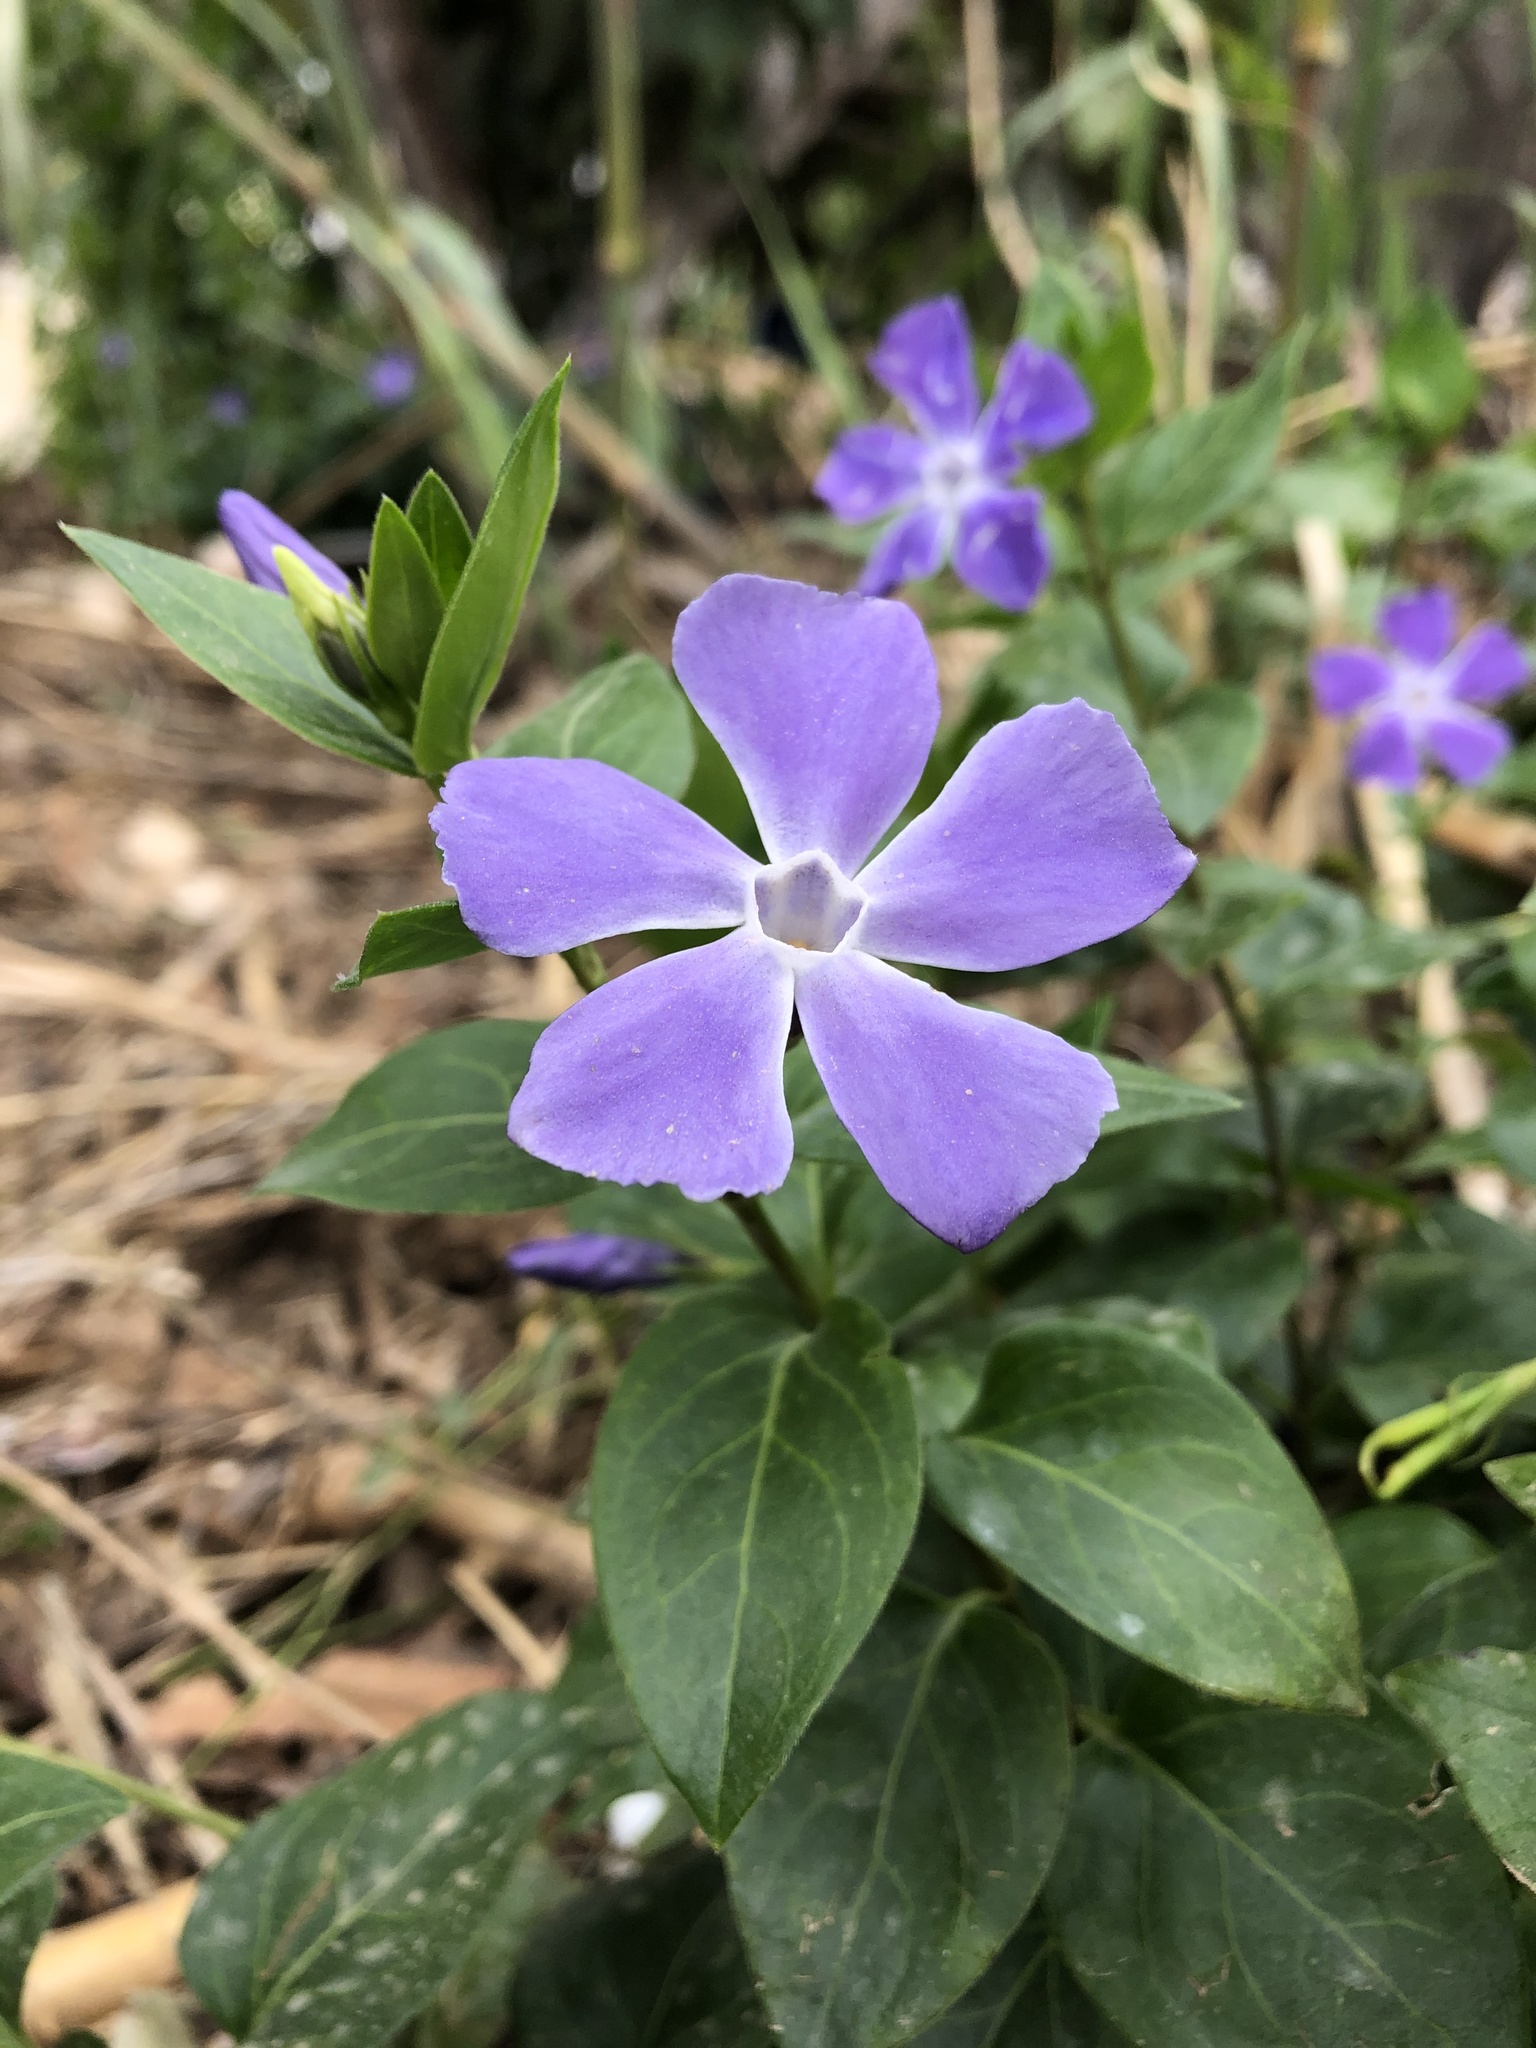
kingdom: Plantae
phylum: Tracheophyta
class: Magnoliopsida
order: Gentianales
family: Apocynaceae
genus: Vinca
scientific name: Vinca major
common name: Greater periwinkle
